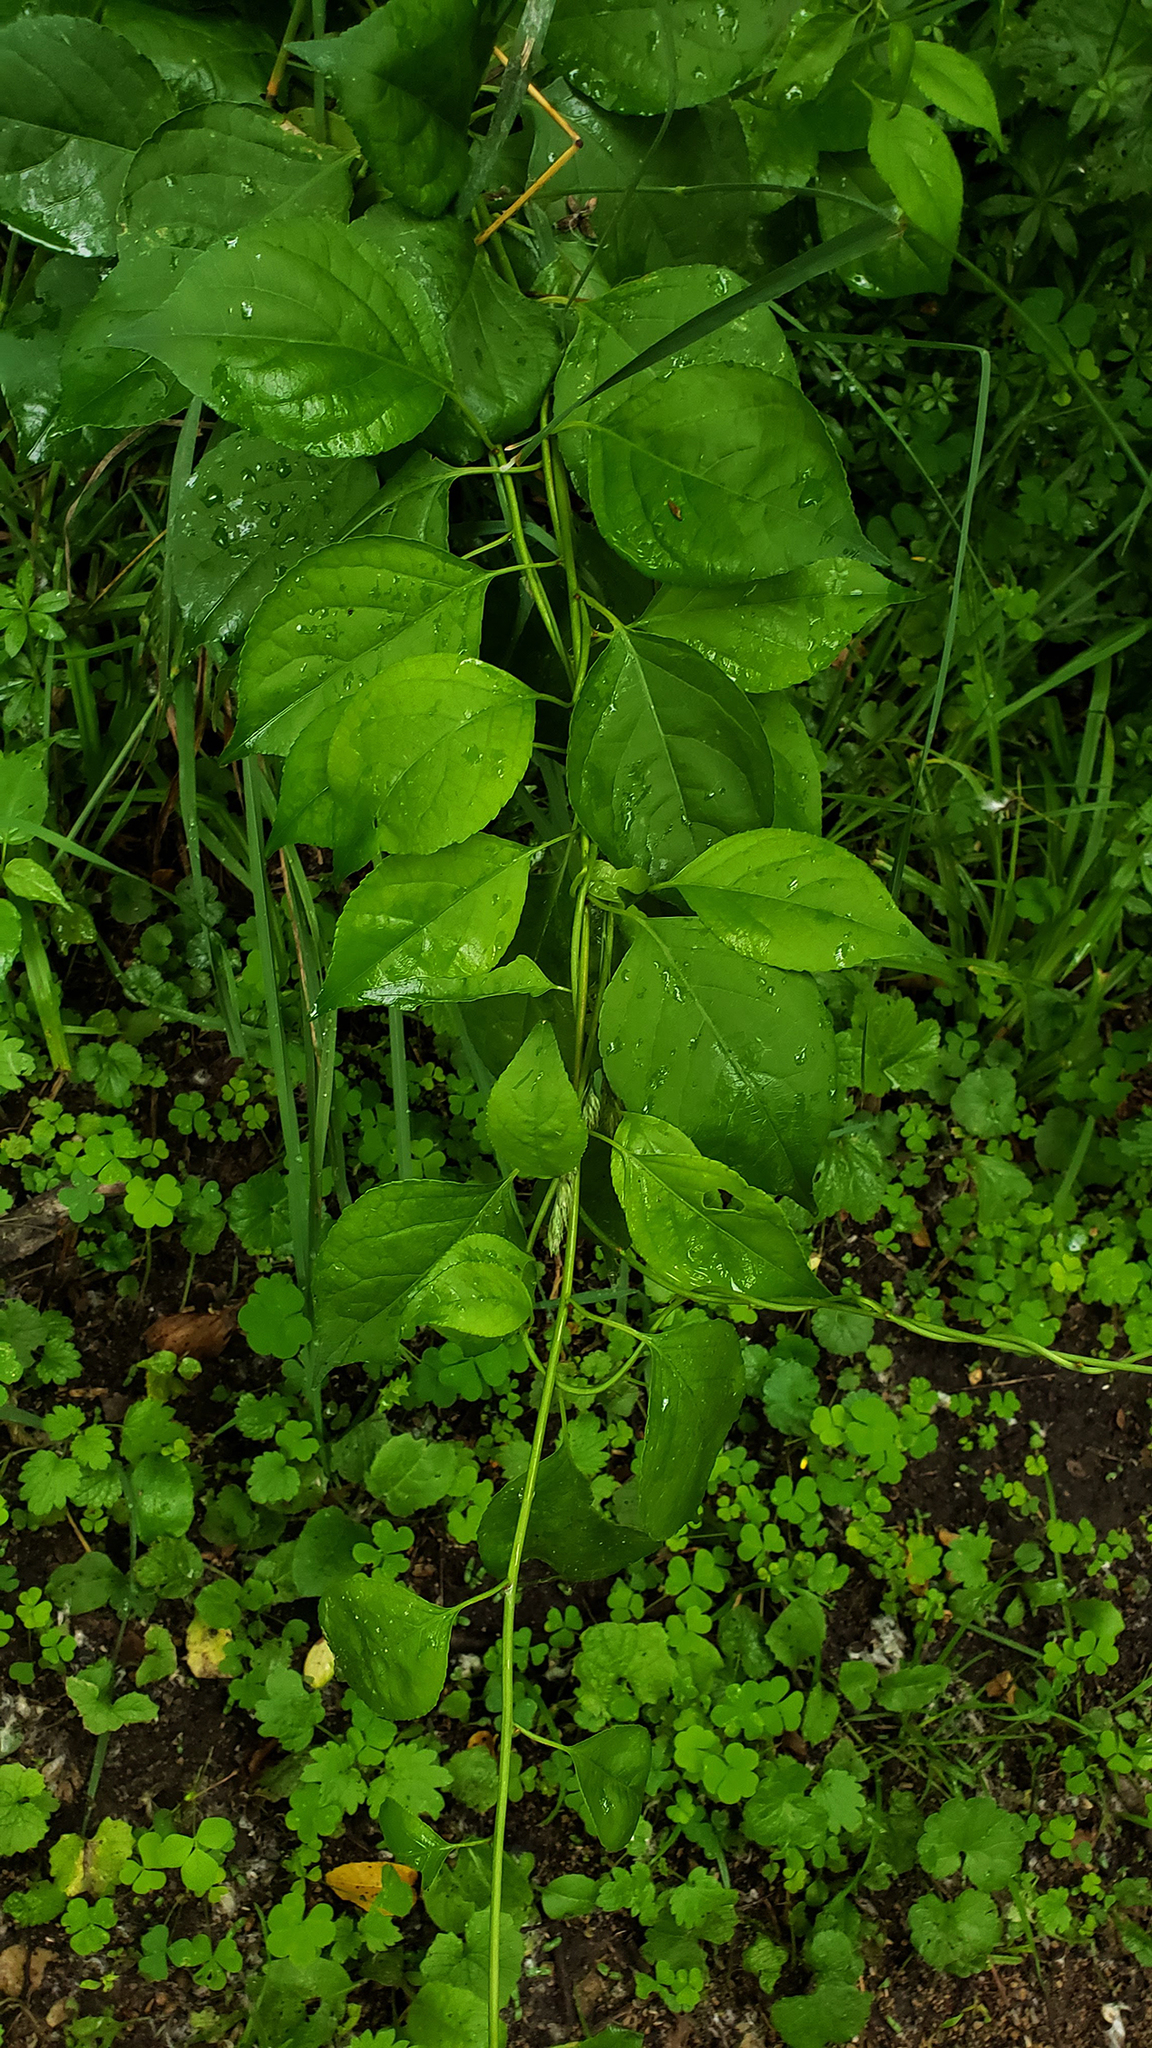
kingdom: Plantae
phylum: Tracheophyta
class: Magnoliopsida
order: Celastrales
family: Celastraceae
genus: Celastrus
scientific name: Celastrus orbiculatus
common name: Oriental bittersweet
